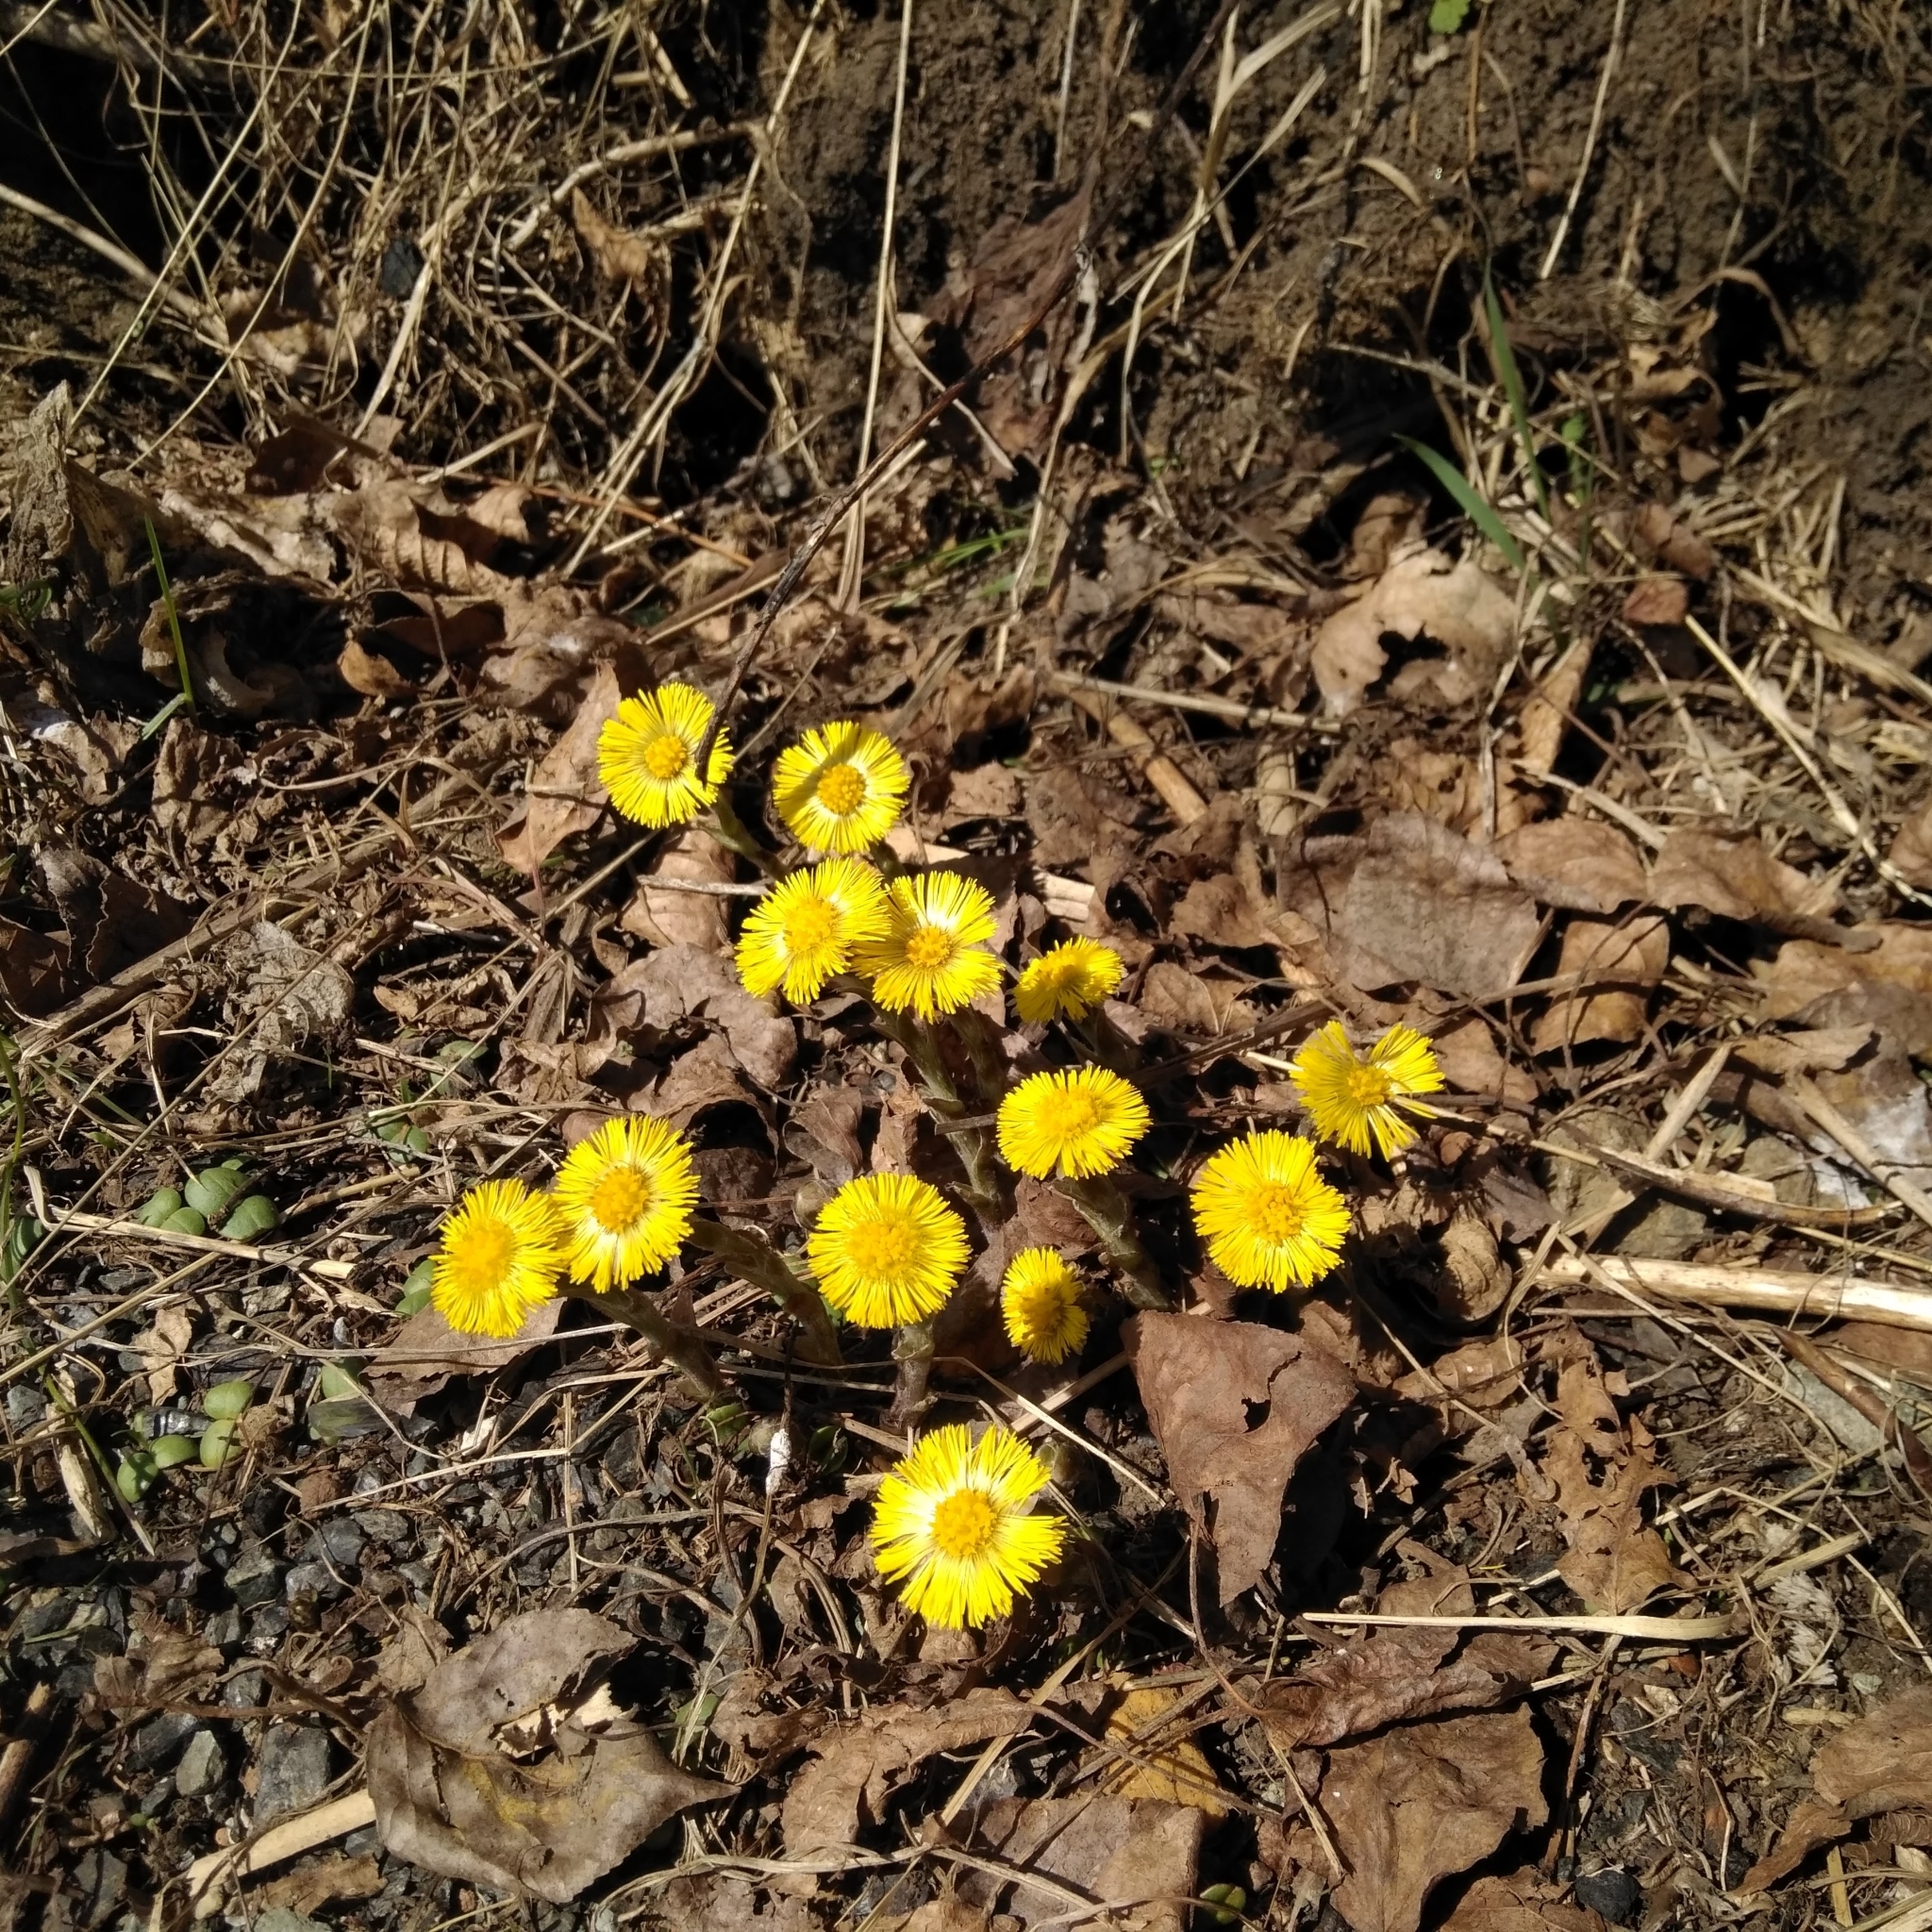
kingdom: Plantae
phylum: Tracheophyta
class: Magnoliopsida
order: Asterales
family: Asteraceae
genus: Tussilago
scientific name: Tussilago farfara
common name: Coltsfoot
